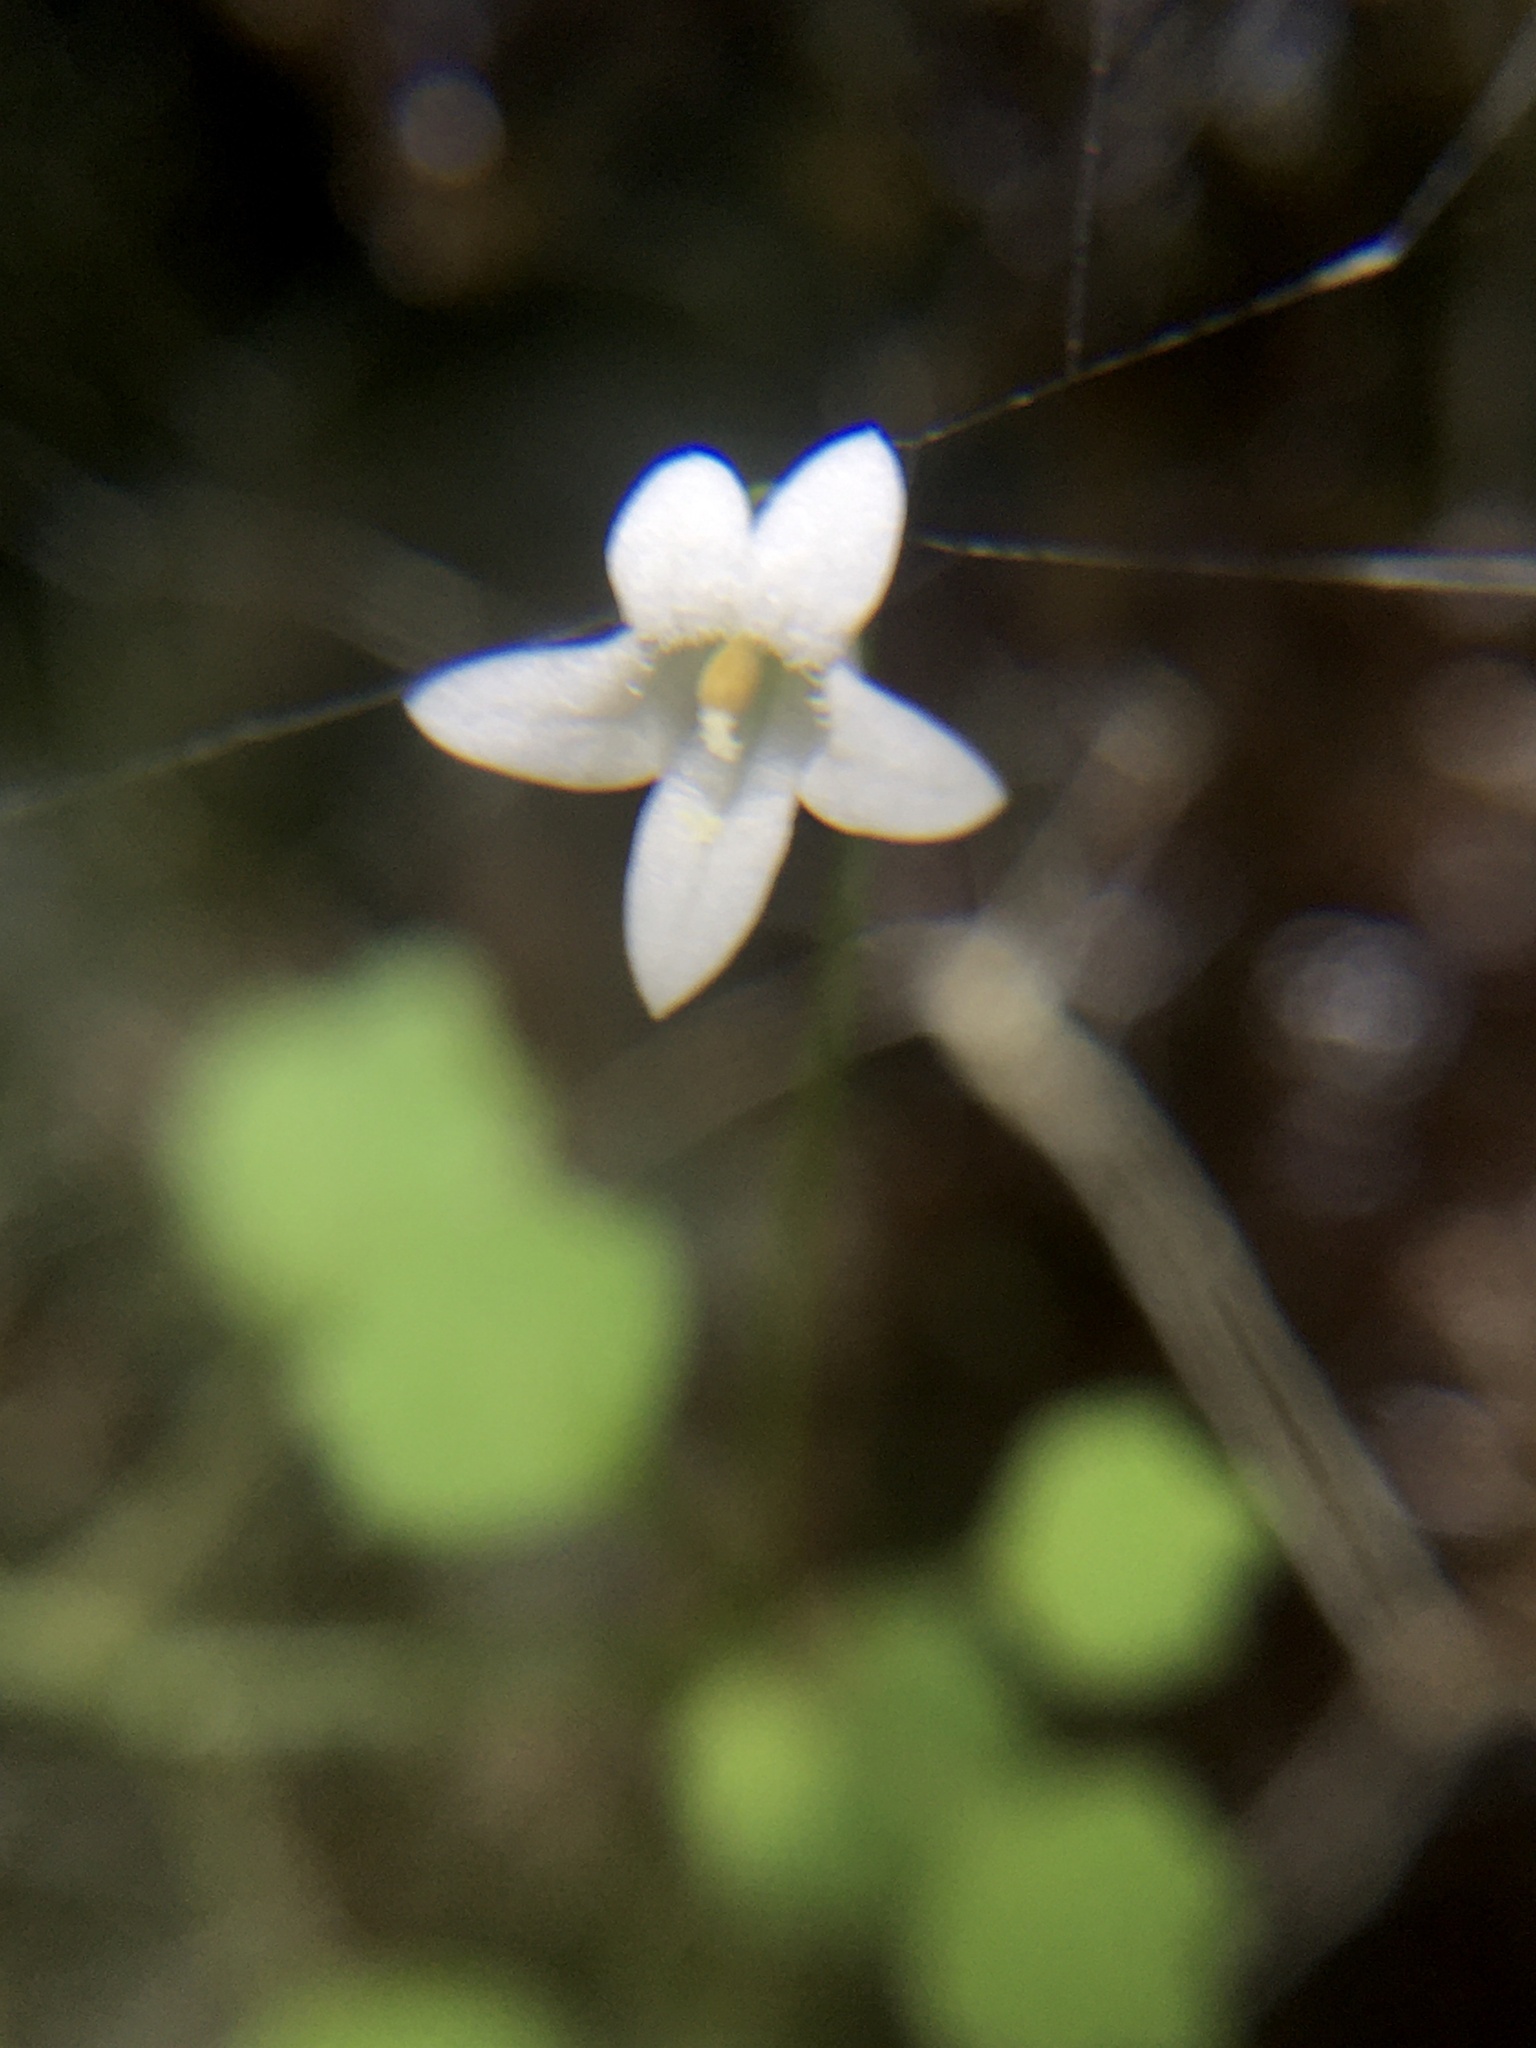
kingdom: Plantae
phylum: Tracheophyta
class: Magnoliopsida
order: Asterales
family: Campanulaceae
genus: Wimmerella
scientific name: Wimmerella pygmaea
